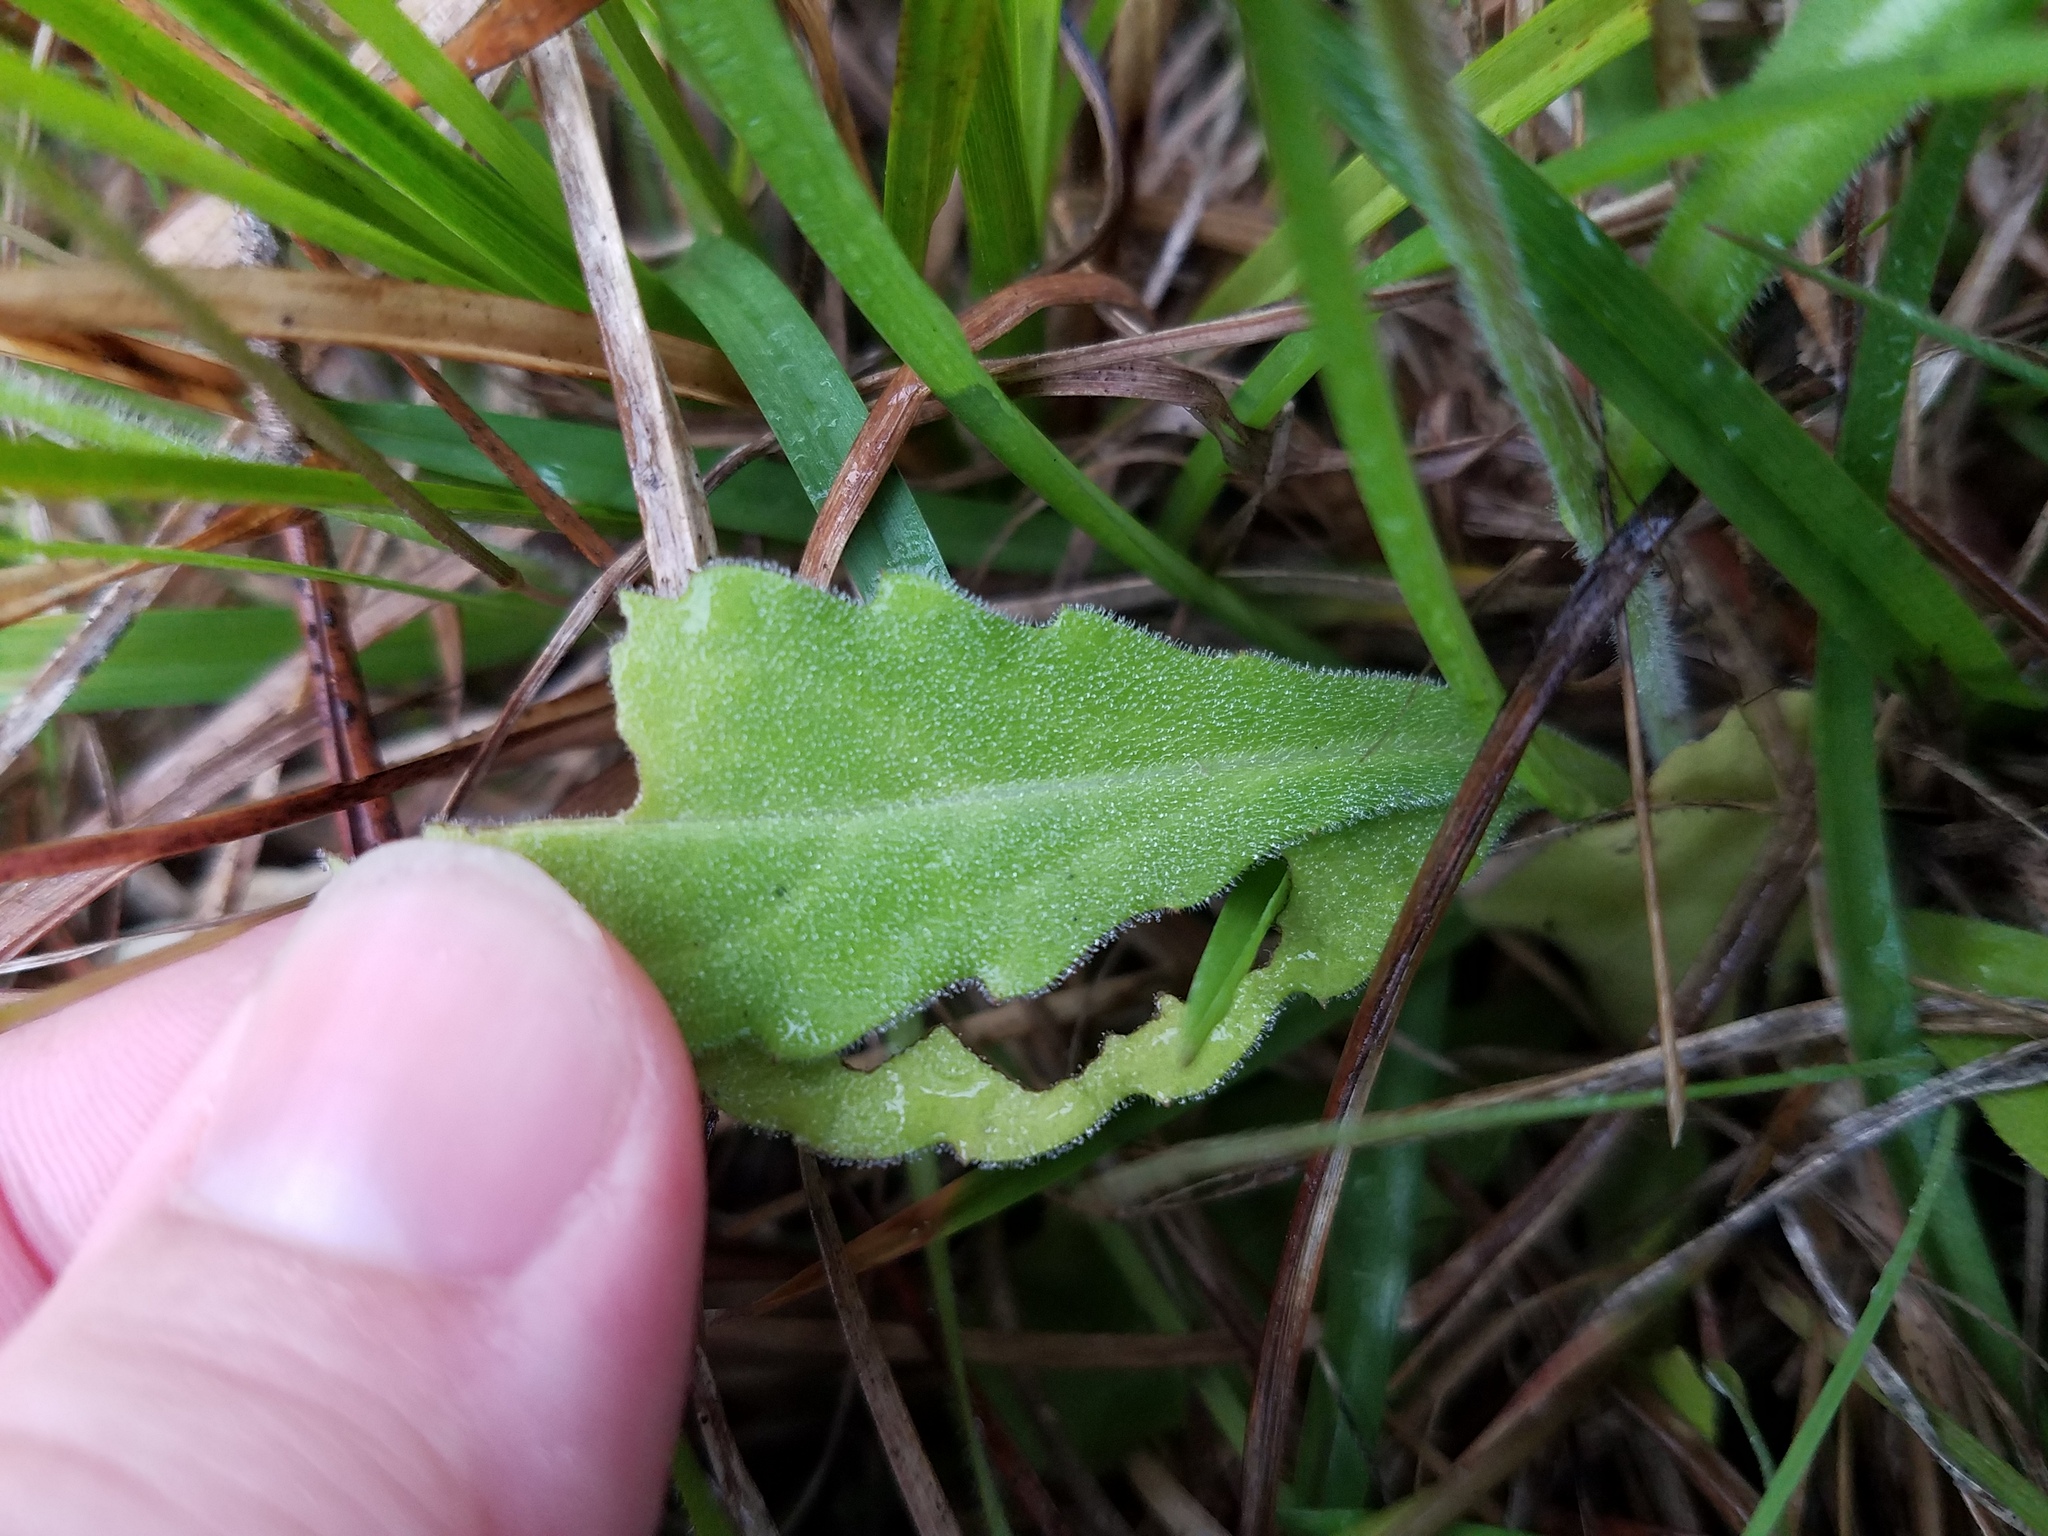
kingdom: Plantae
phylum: Tracheophyta
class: Magnoliopsida
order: Asterales
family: Asteraceae
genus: Erigeron
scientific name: Erigeron quercifolius
